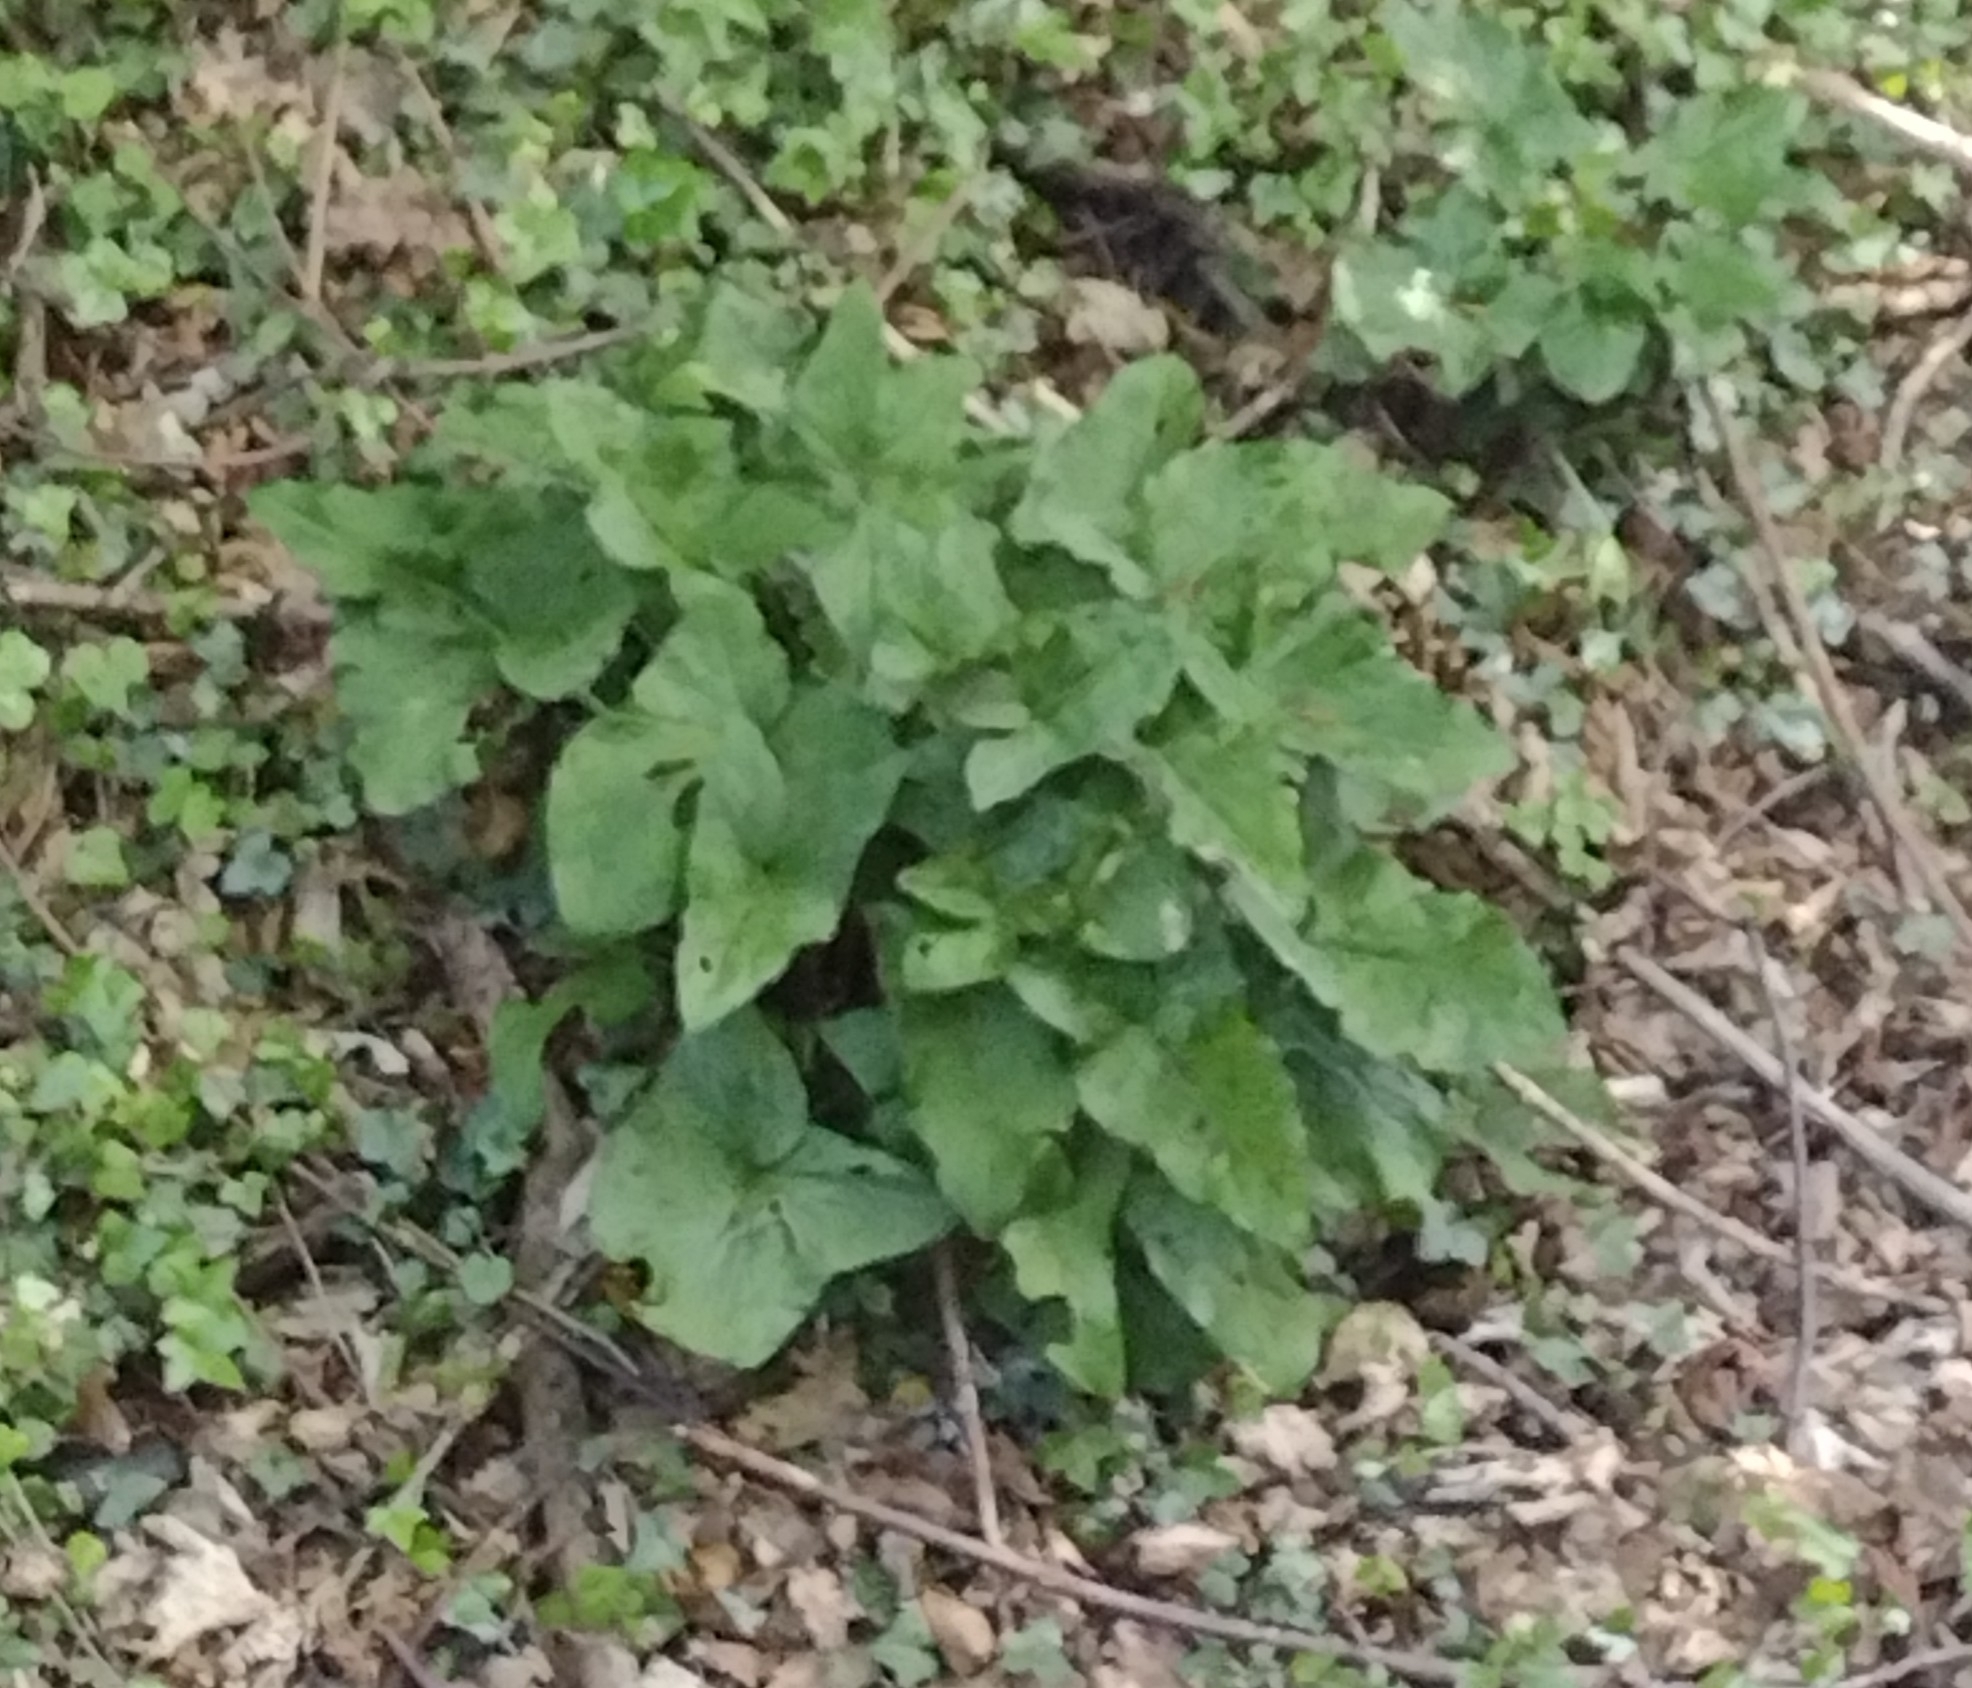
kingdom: Plantae
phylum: Tracheophyta
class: Liliopsida
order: Alismatales
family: Araceae
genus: Arum
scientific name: Arum maculatum
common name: Lords-and-ladies
